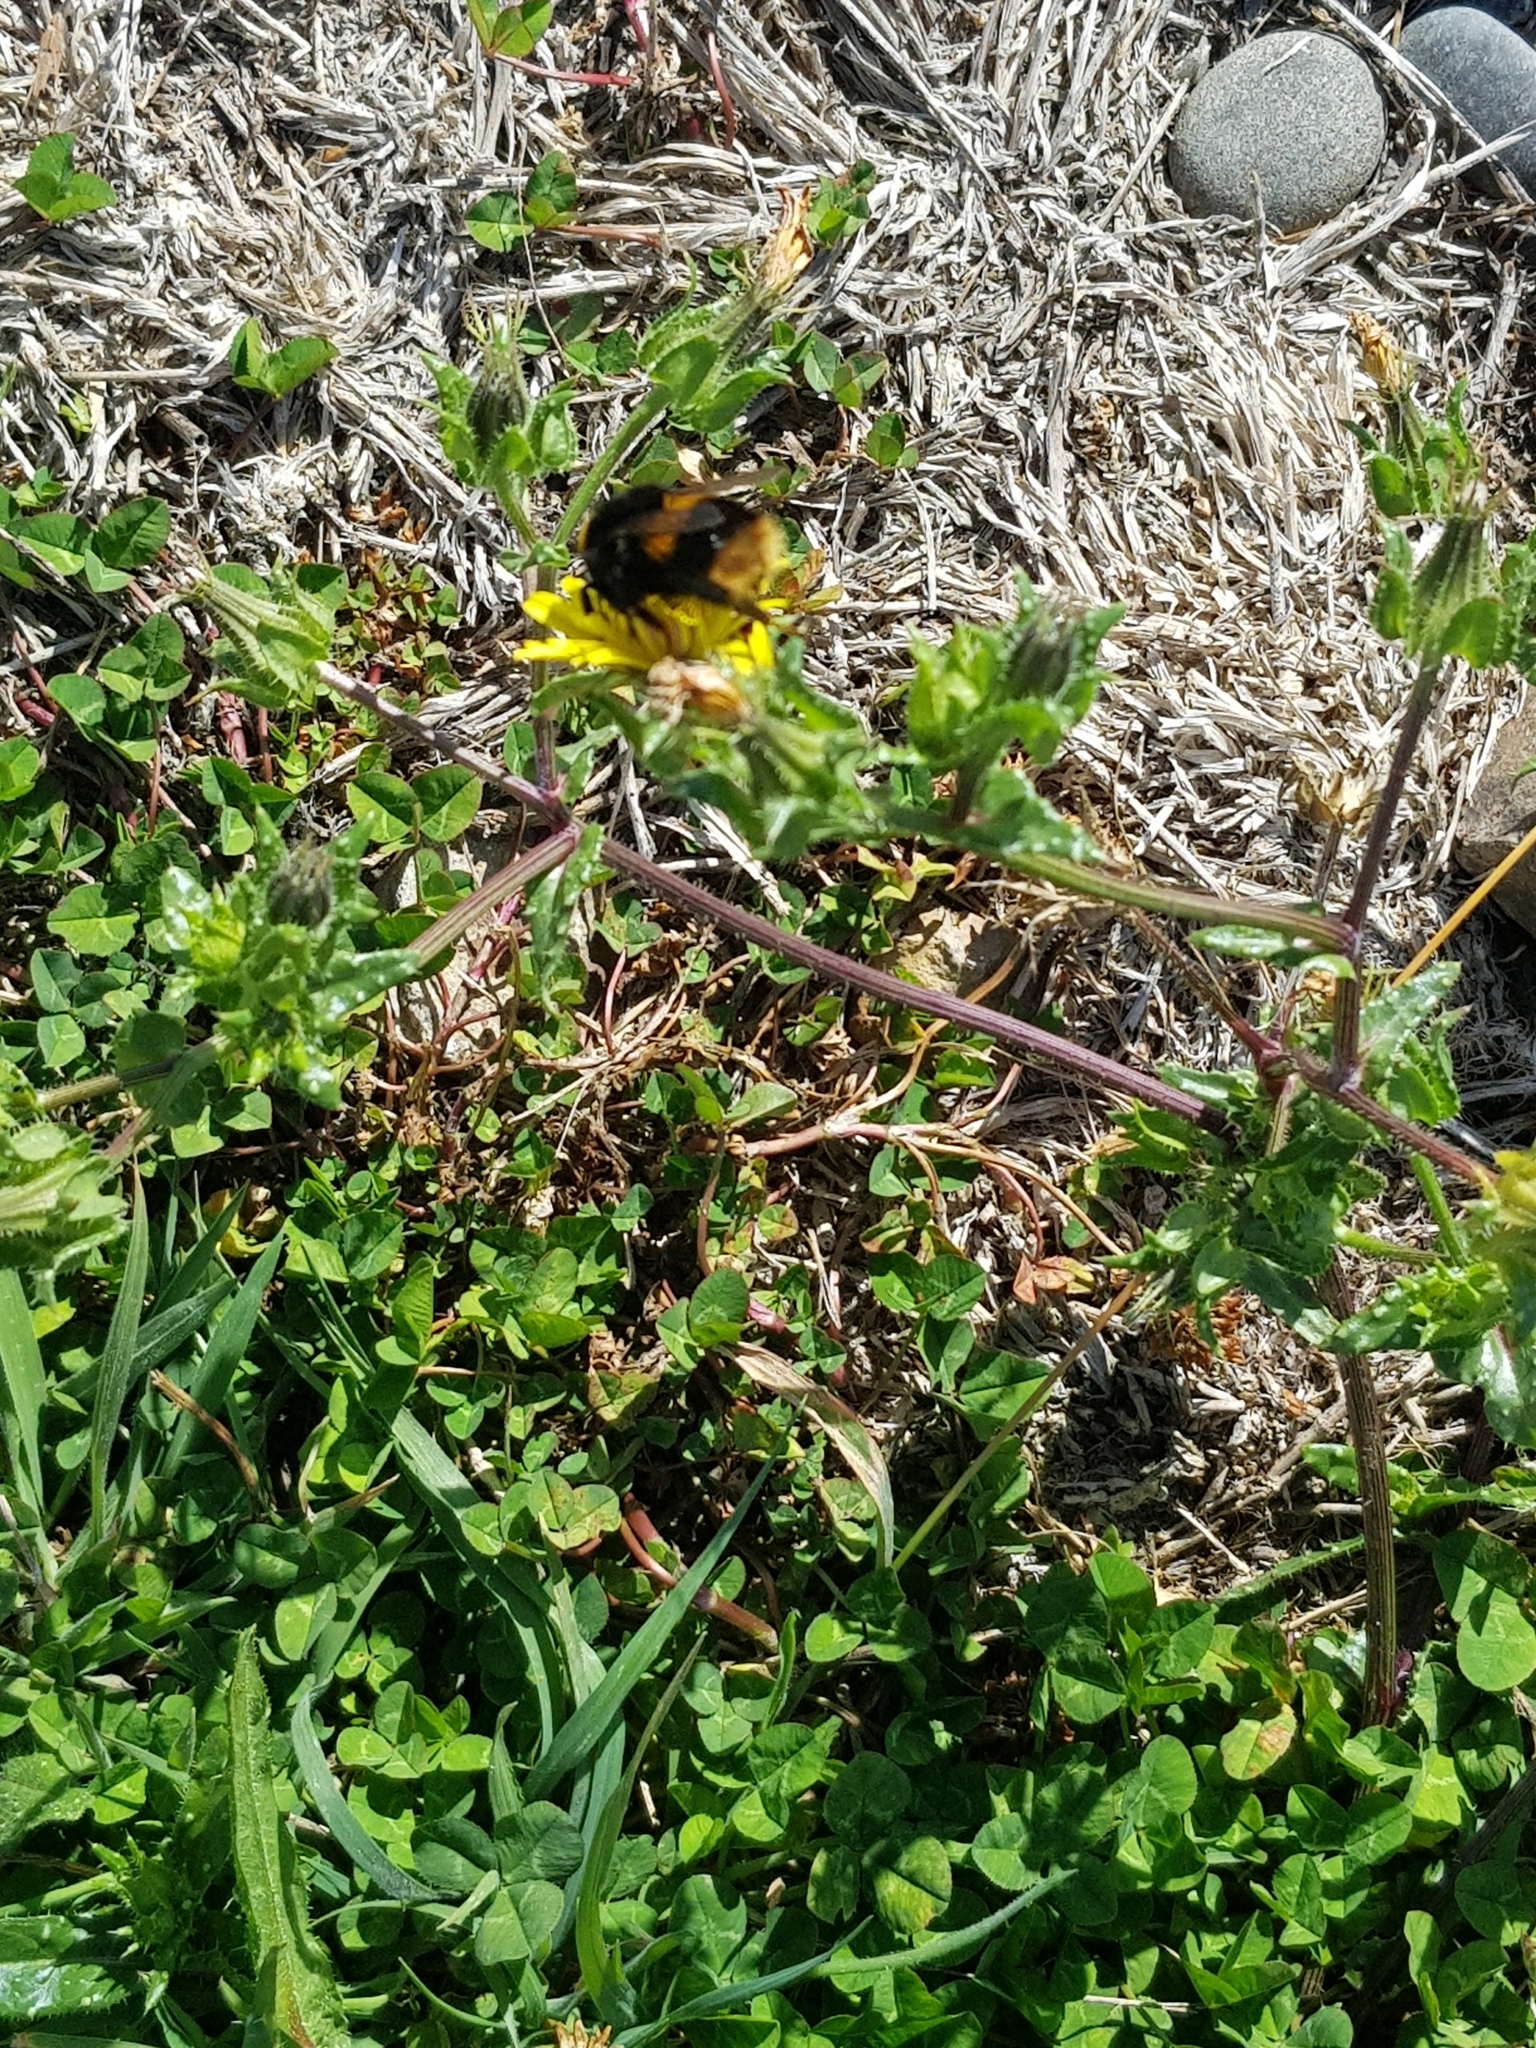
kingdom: Animalia
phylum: Arthropoda
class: Insecta
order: Hymenoptera
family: Apidae
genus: Bombus
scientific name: Bombus terrestris
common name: Buff-tailed bumblebee
